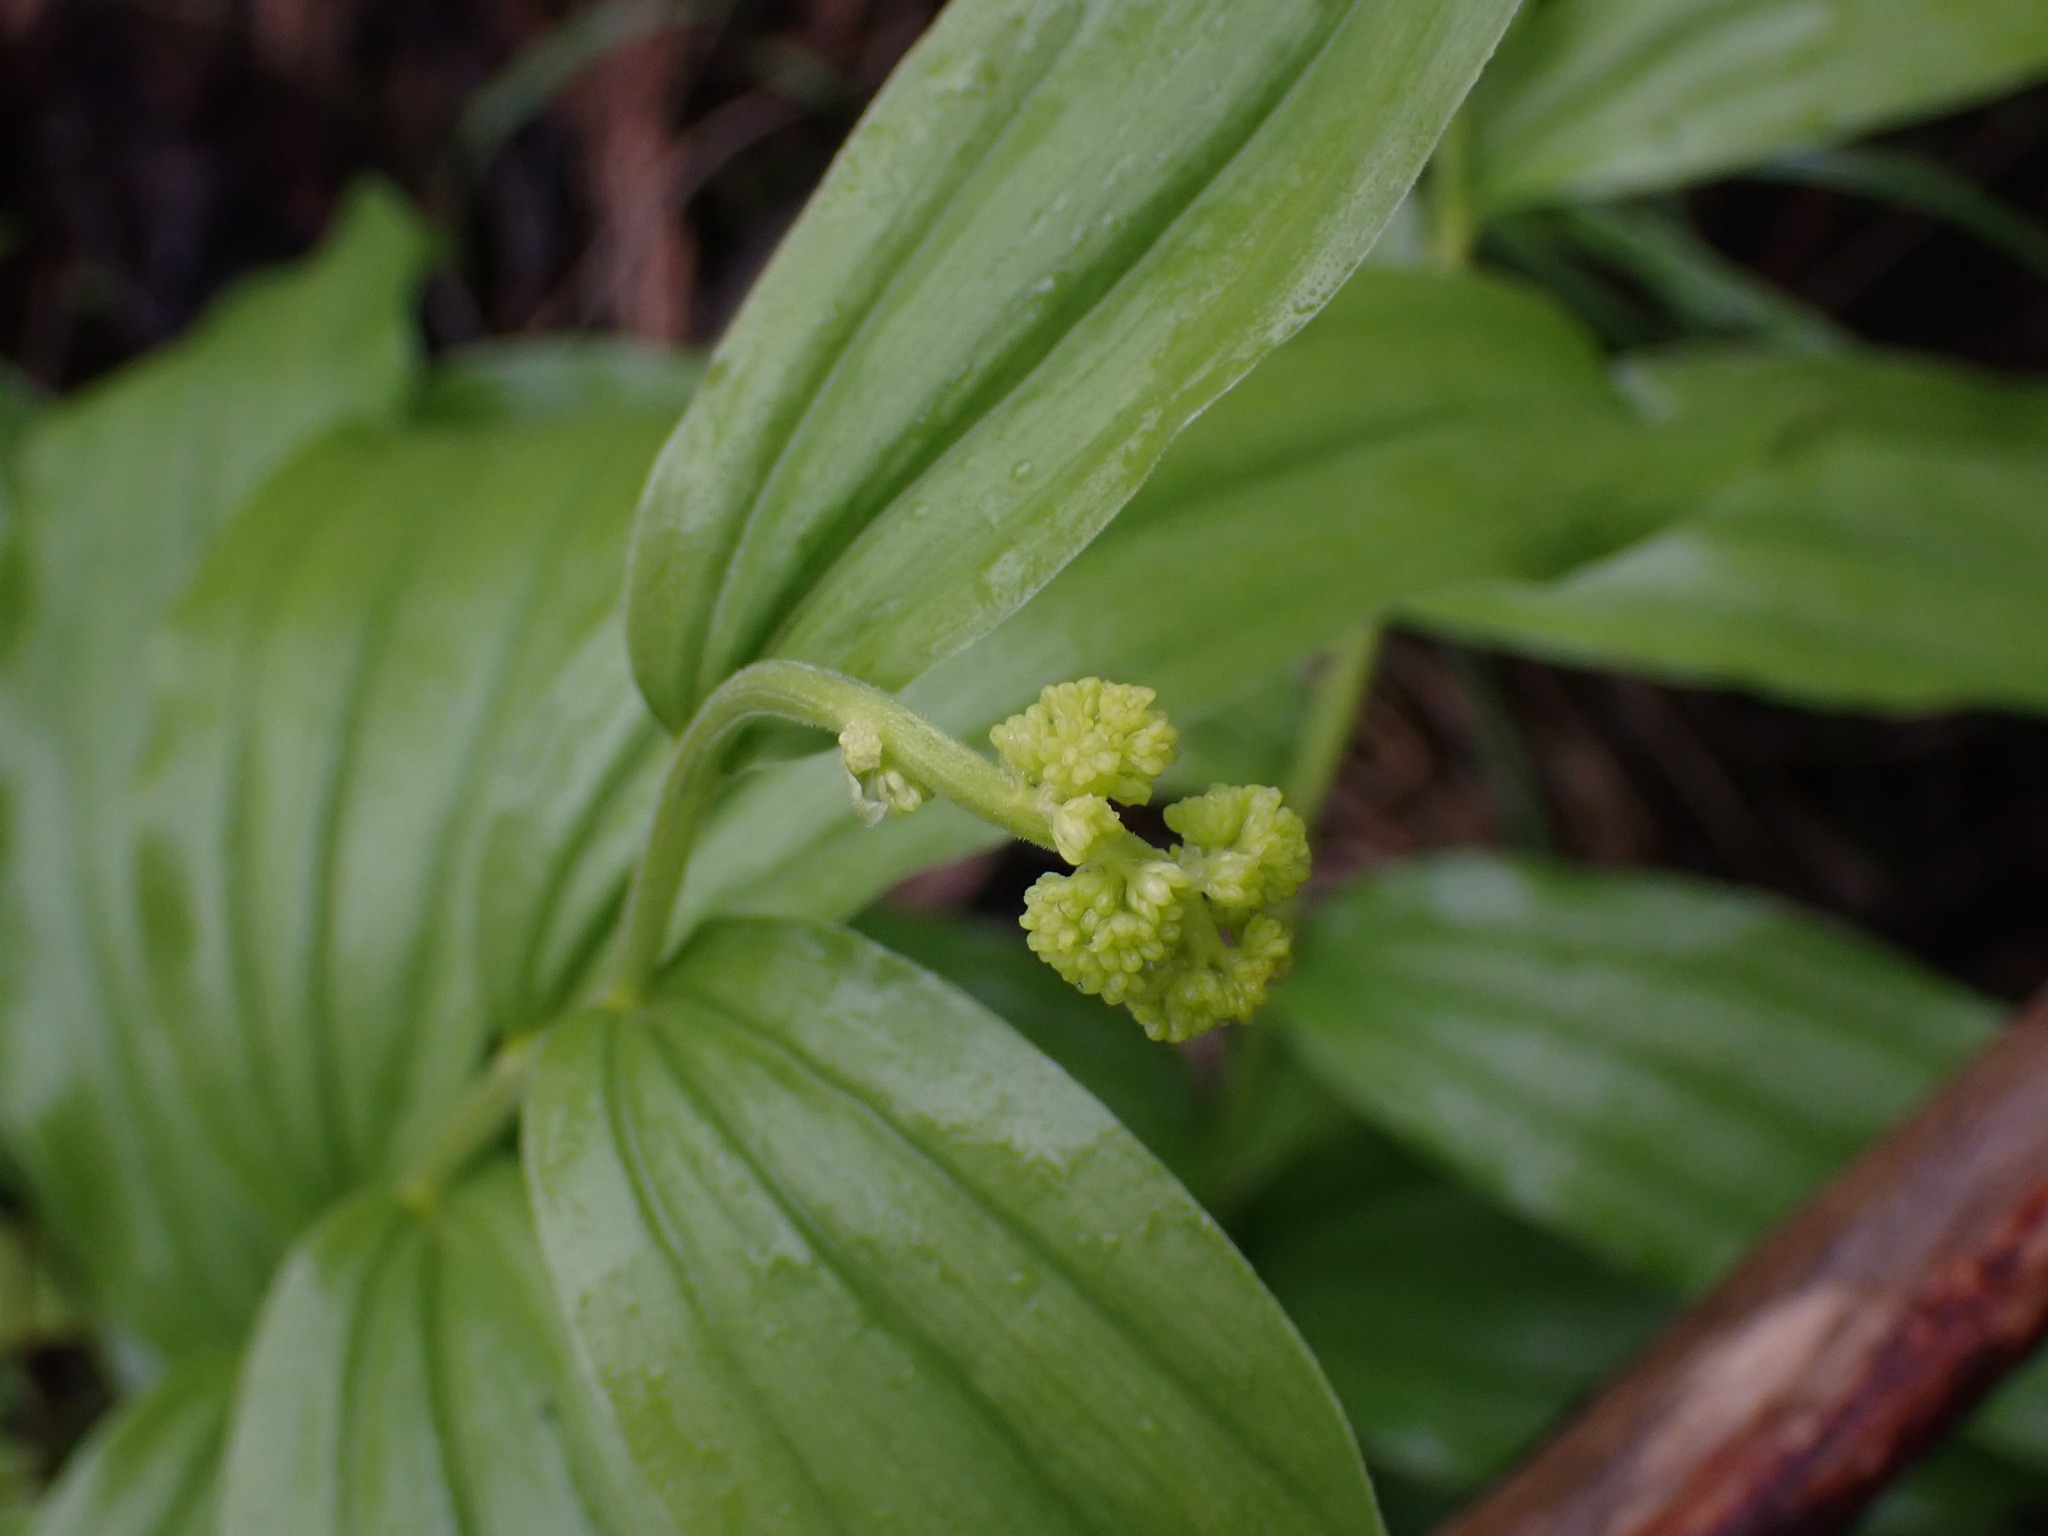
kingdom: Plantae
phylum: Tracheophyta
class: Liliopsida
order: Asparagales
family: Asparagaceae
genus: Maianthemum
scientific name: Maianthemum racemosum
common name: False spikenard
